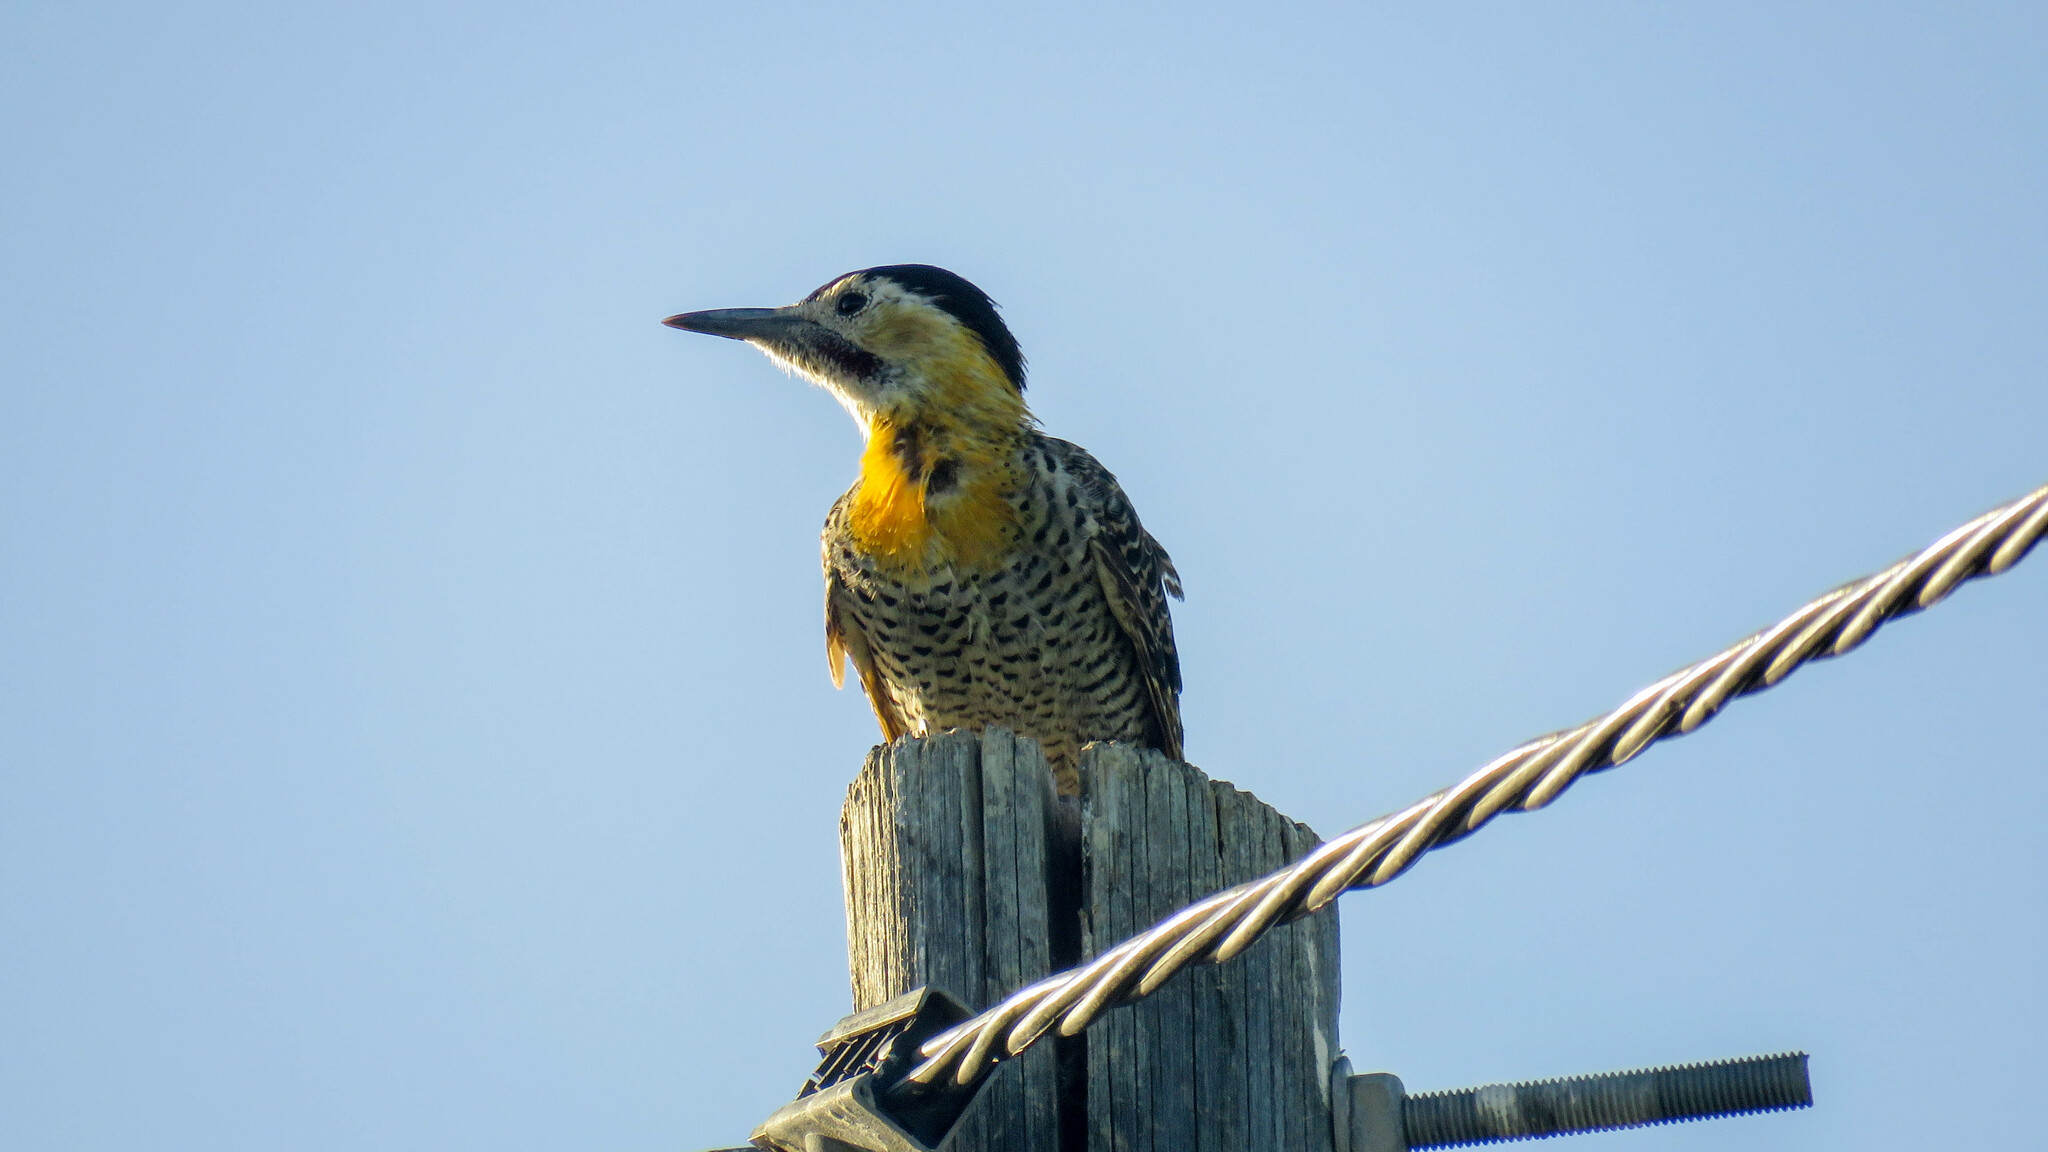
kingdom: Animalia
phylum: Chordata
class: Aves
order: Piciformes
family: Picidae
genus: Colaptes
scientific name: Colaptes campestris
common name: Campo flicker
